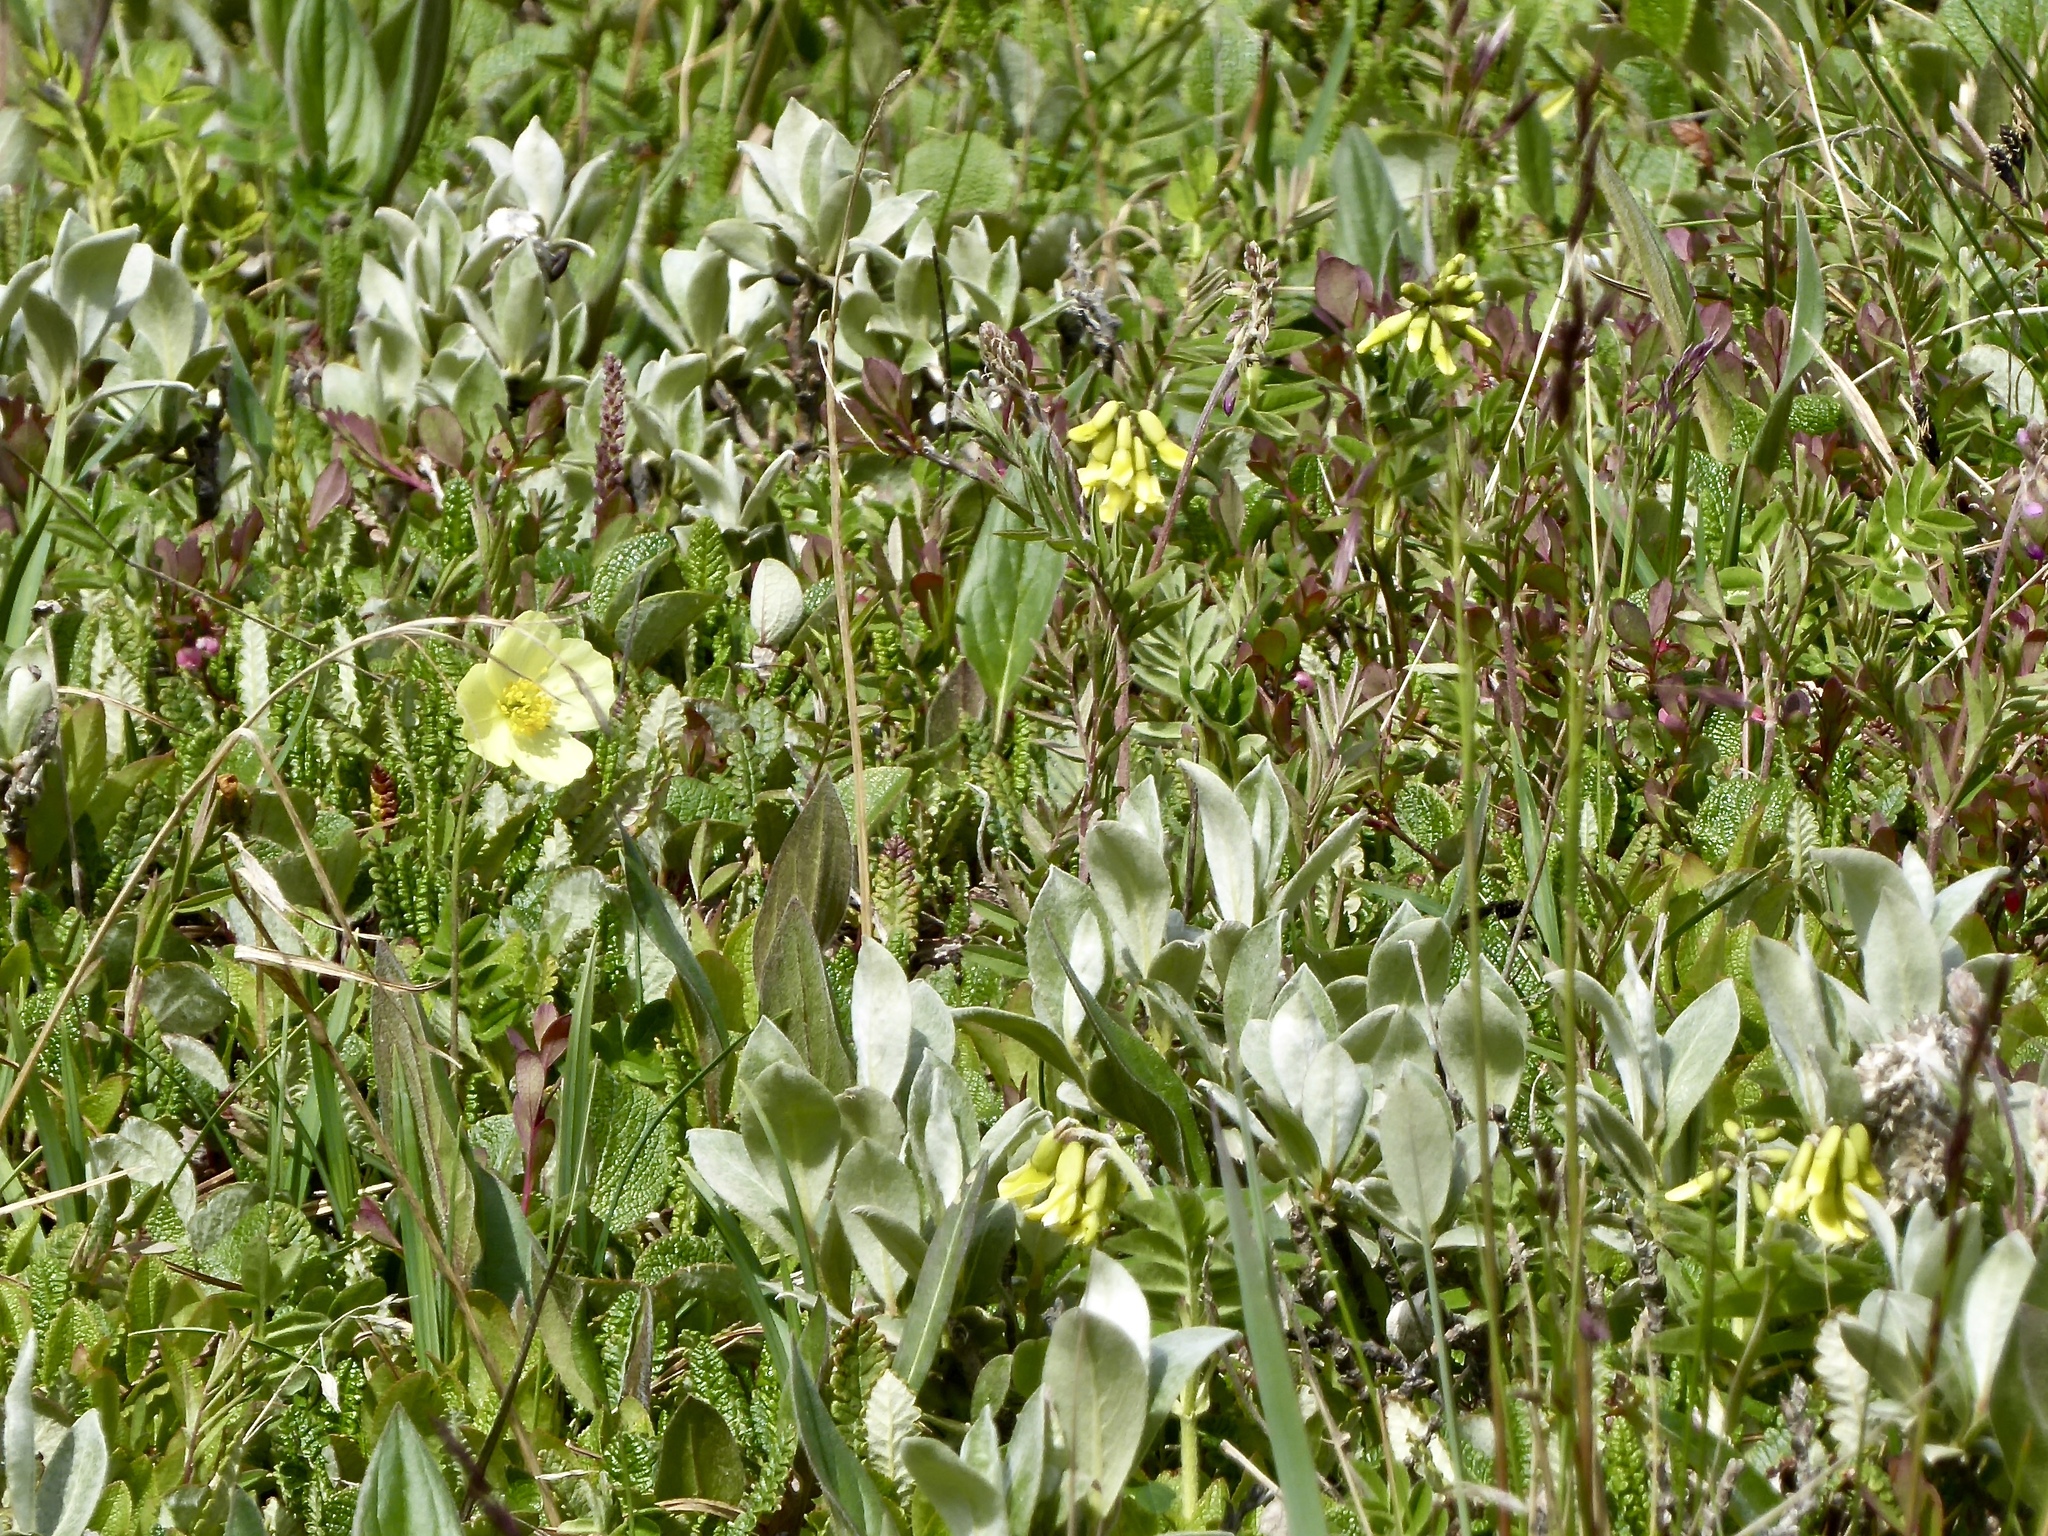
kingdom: Plantae
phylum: Tracheophyta
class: Magnoliopsida
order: Fabales
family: Fabaceae
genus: Astragalus
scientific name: Astragalus umbellatus
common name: Tundra milk-vetch
